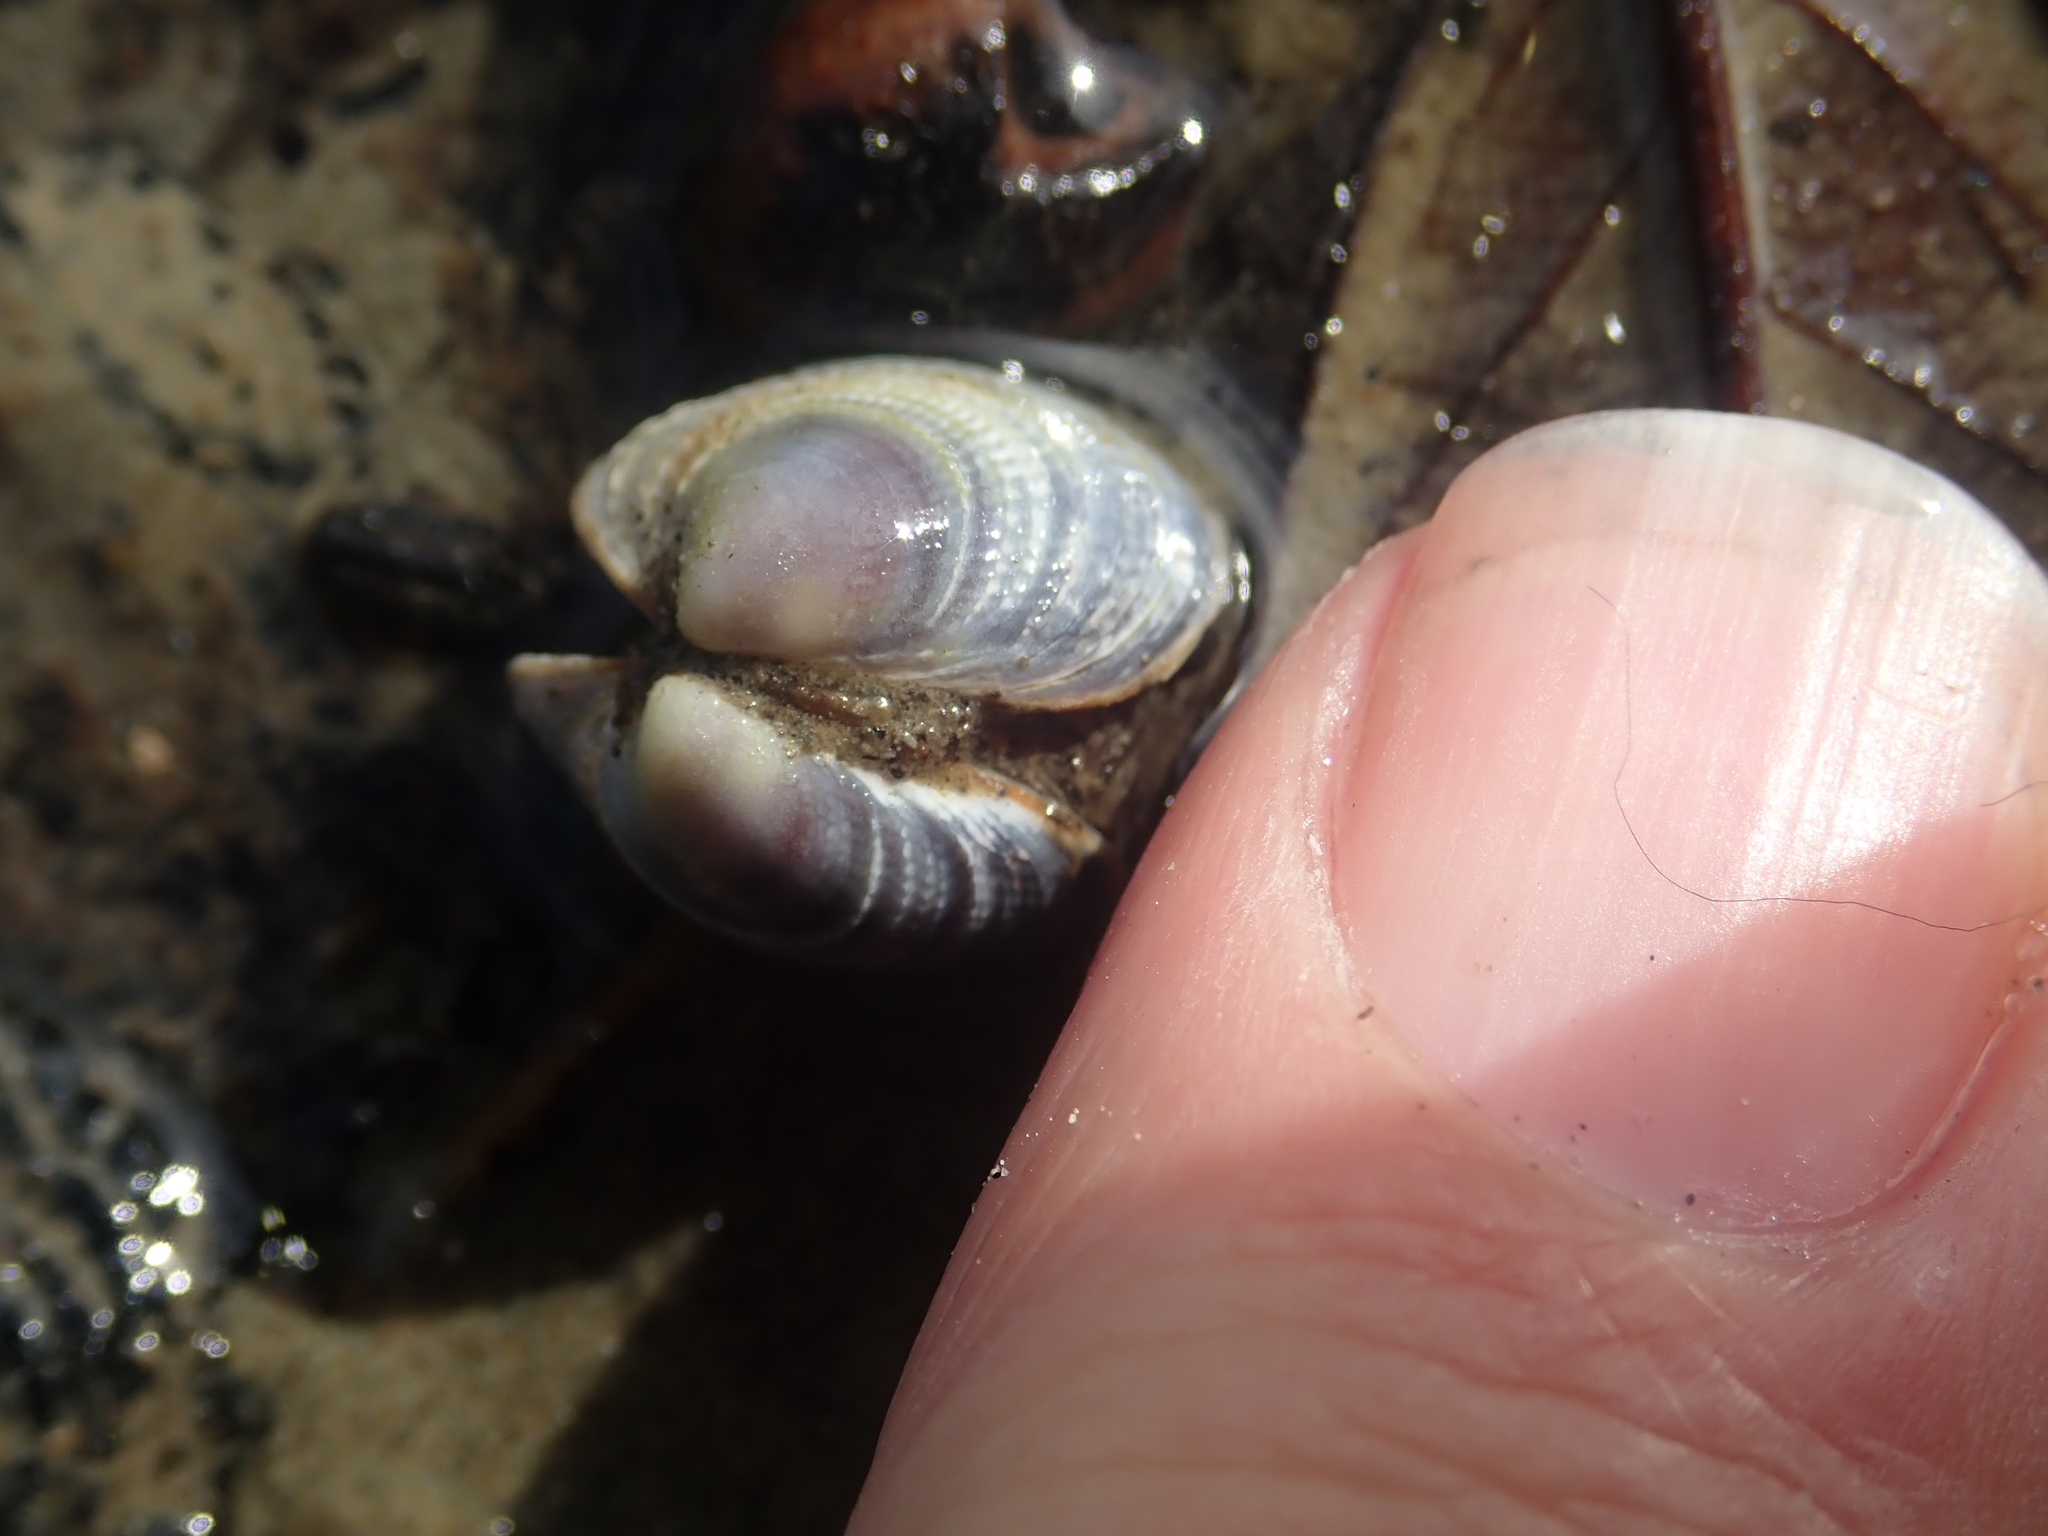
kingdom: Animalia
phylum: Mollusca
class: Bivalvia
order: Venerida
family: Veneridae
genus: Austrovenus
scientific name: Austrovenus stutchburyi
